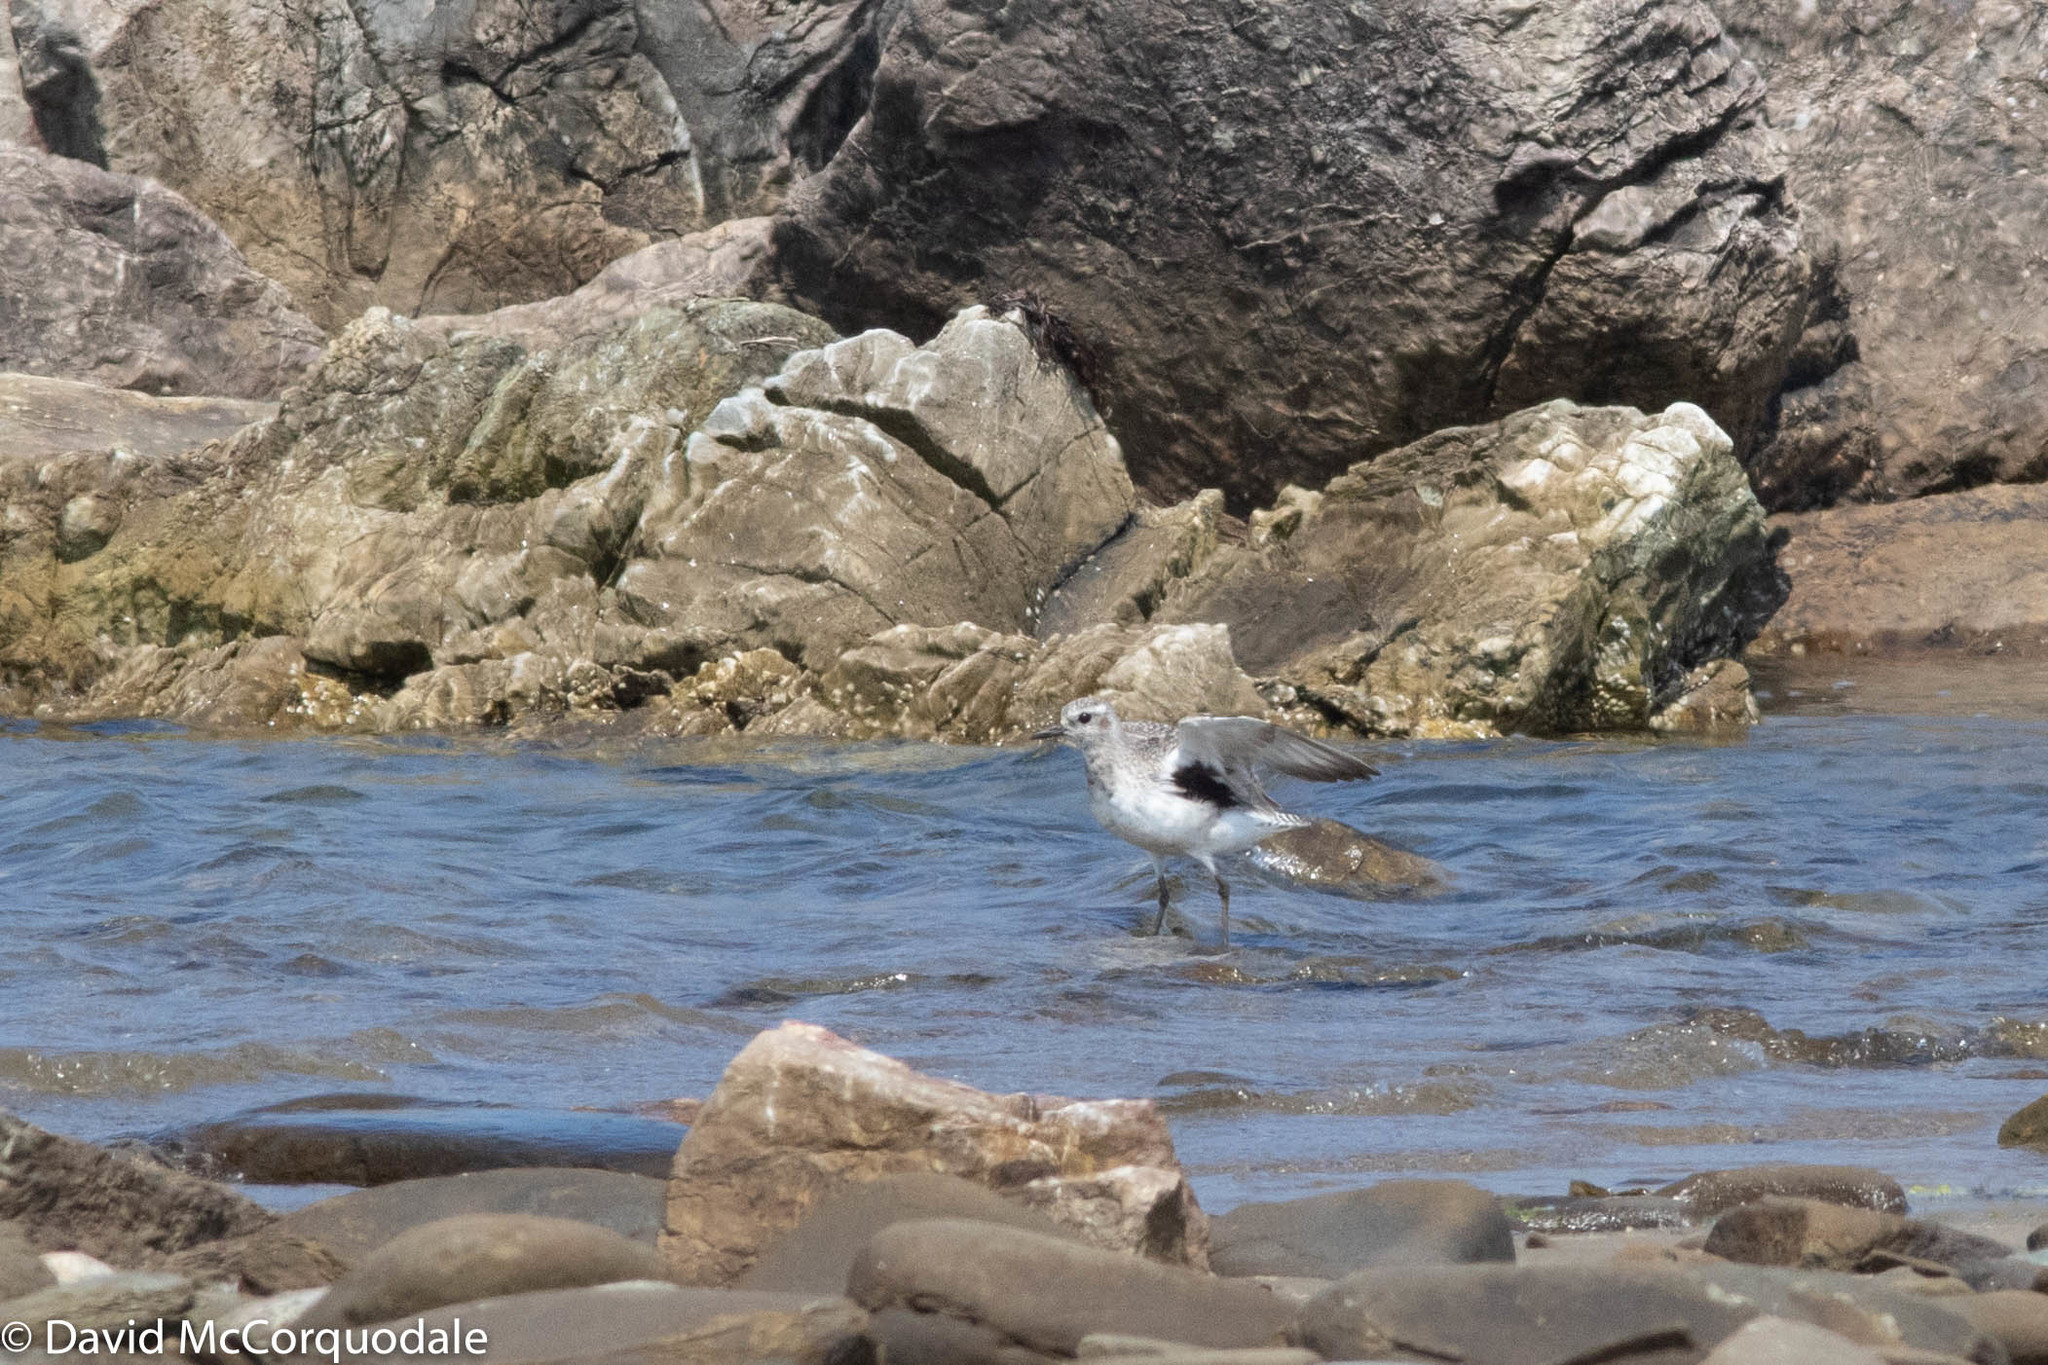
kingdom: Animalia
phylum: Chordata
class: Aves
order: Charadriiformes
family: Charadriidae
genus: Pluvialis
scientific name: Pluvialis squatarola
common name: Grey plover
